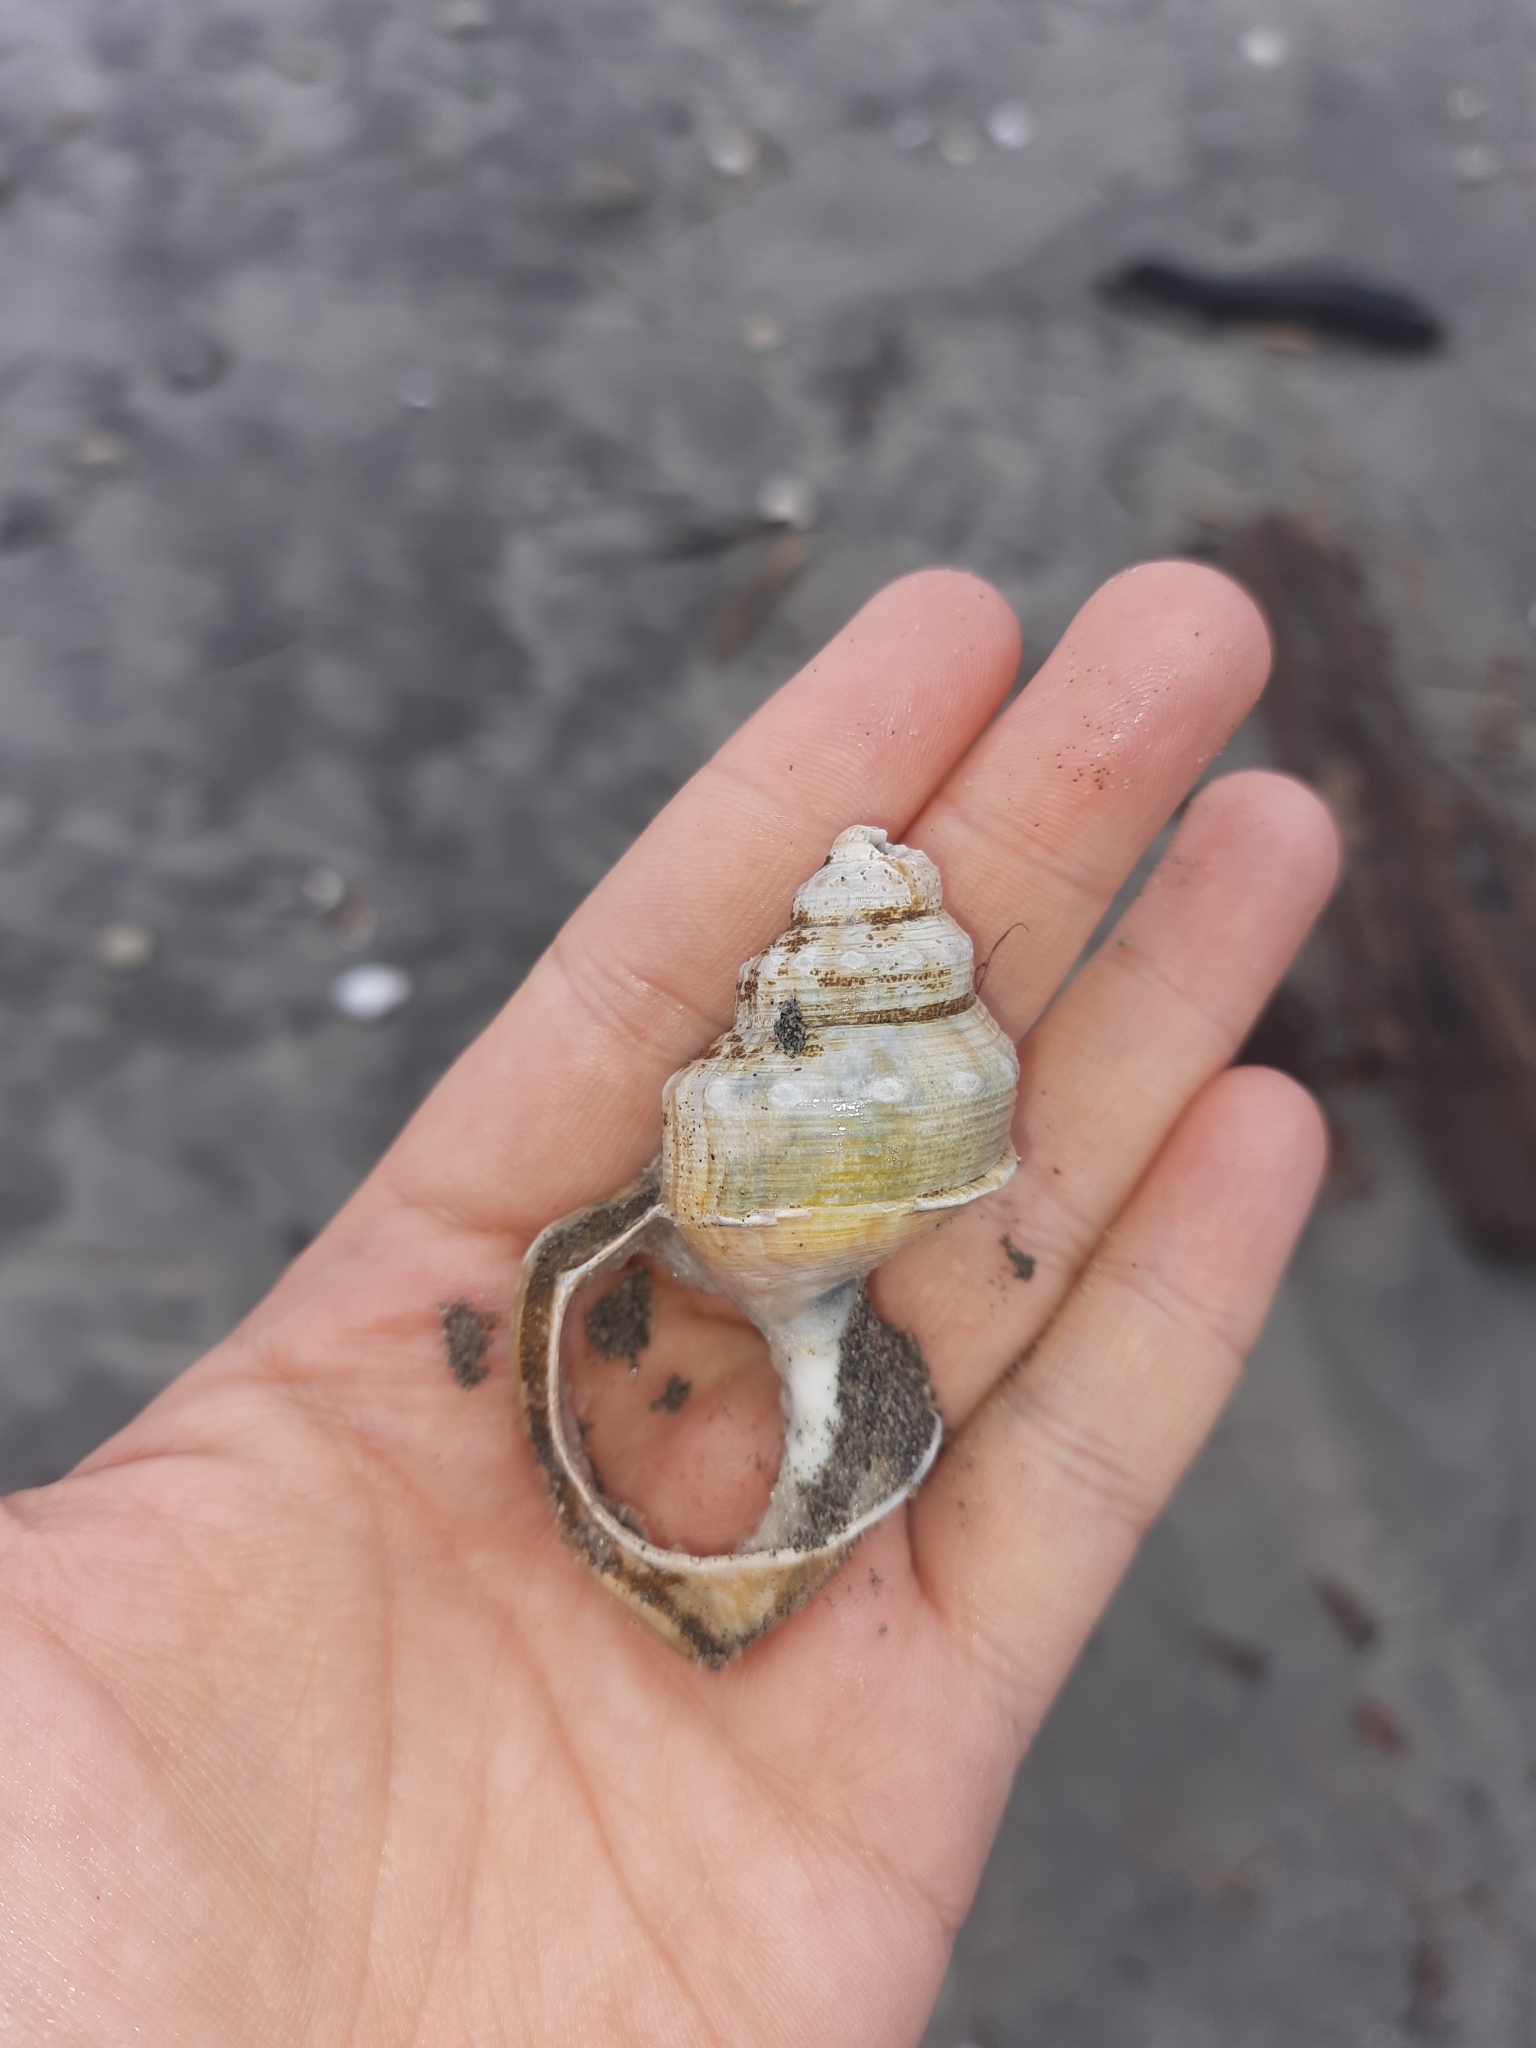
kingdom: Animalia
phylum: Mollusca
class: Gastropoda
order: Littorinimorpha
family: Struthiolariidae
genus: Struthiolaria
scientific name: Struthiolaria papulosa
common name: Large ostrich foot
